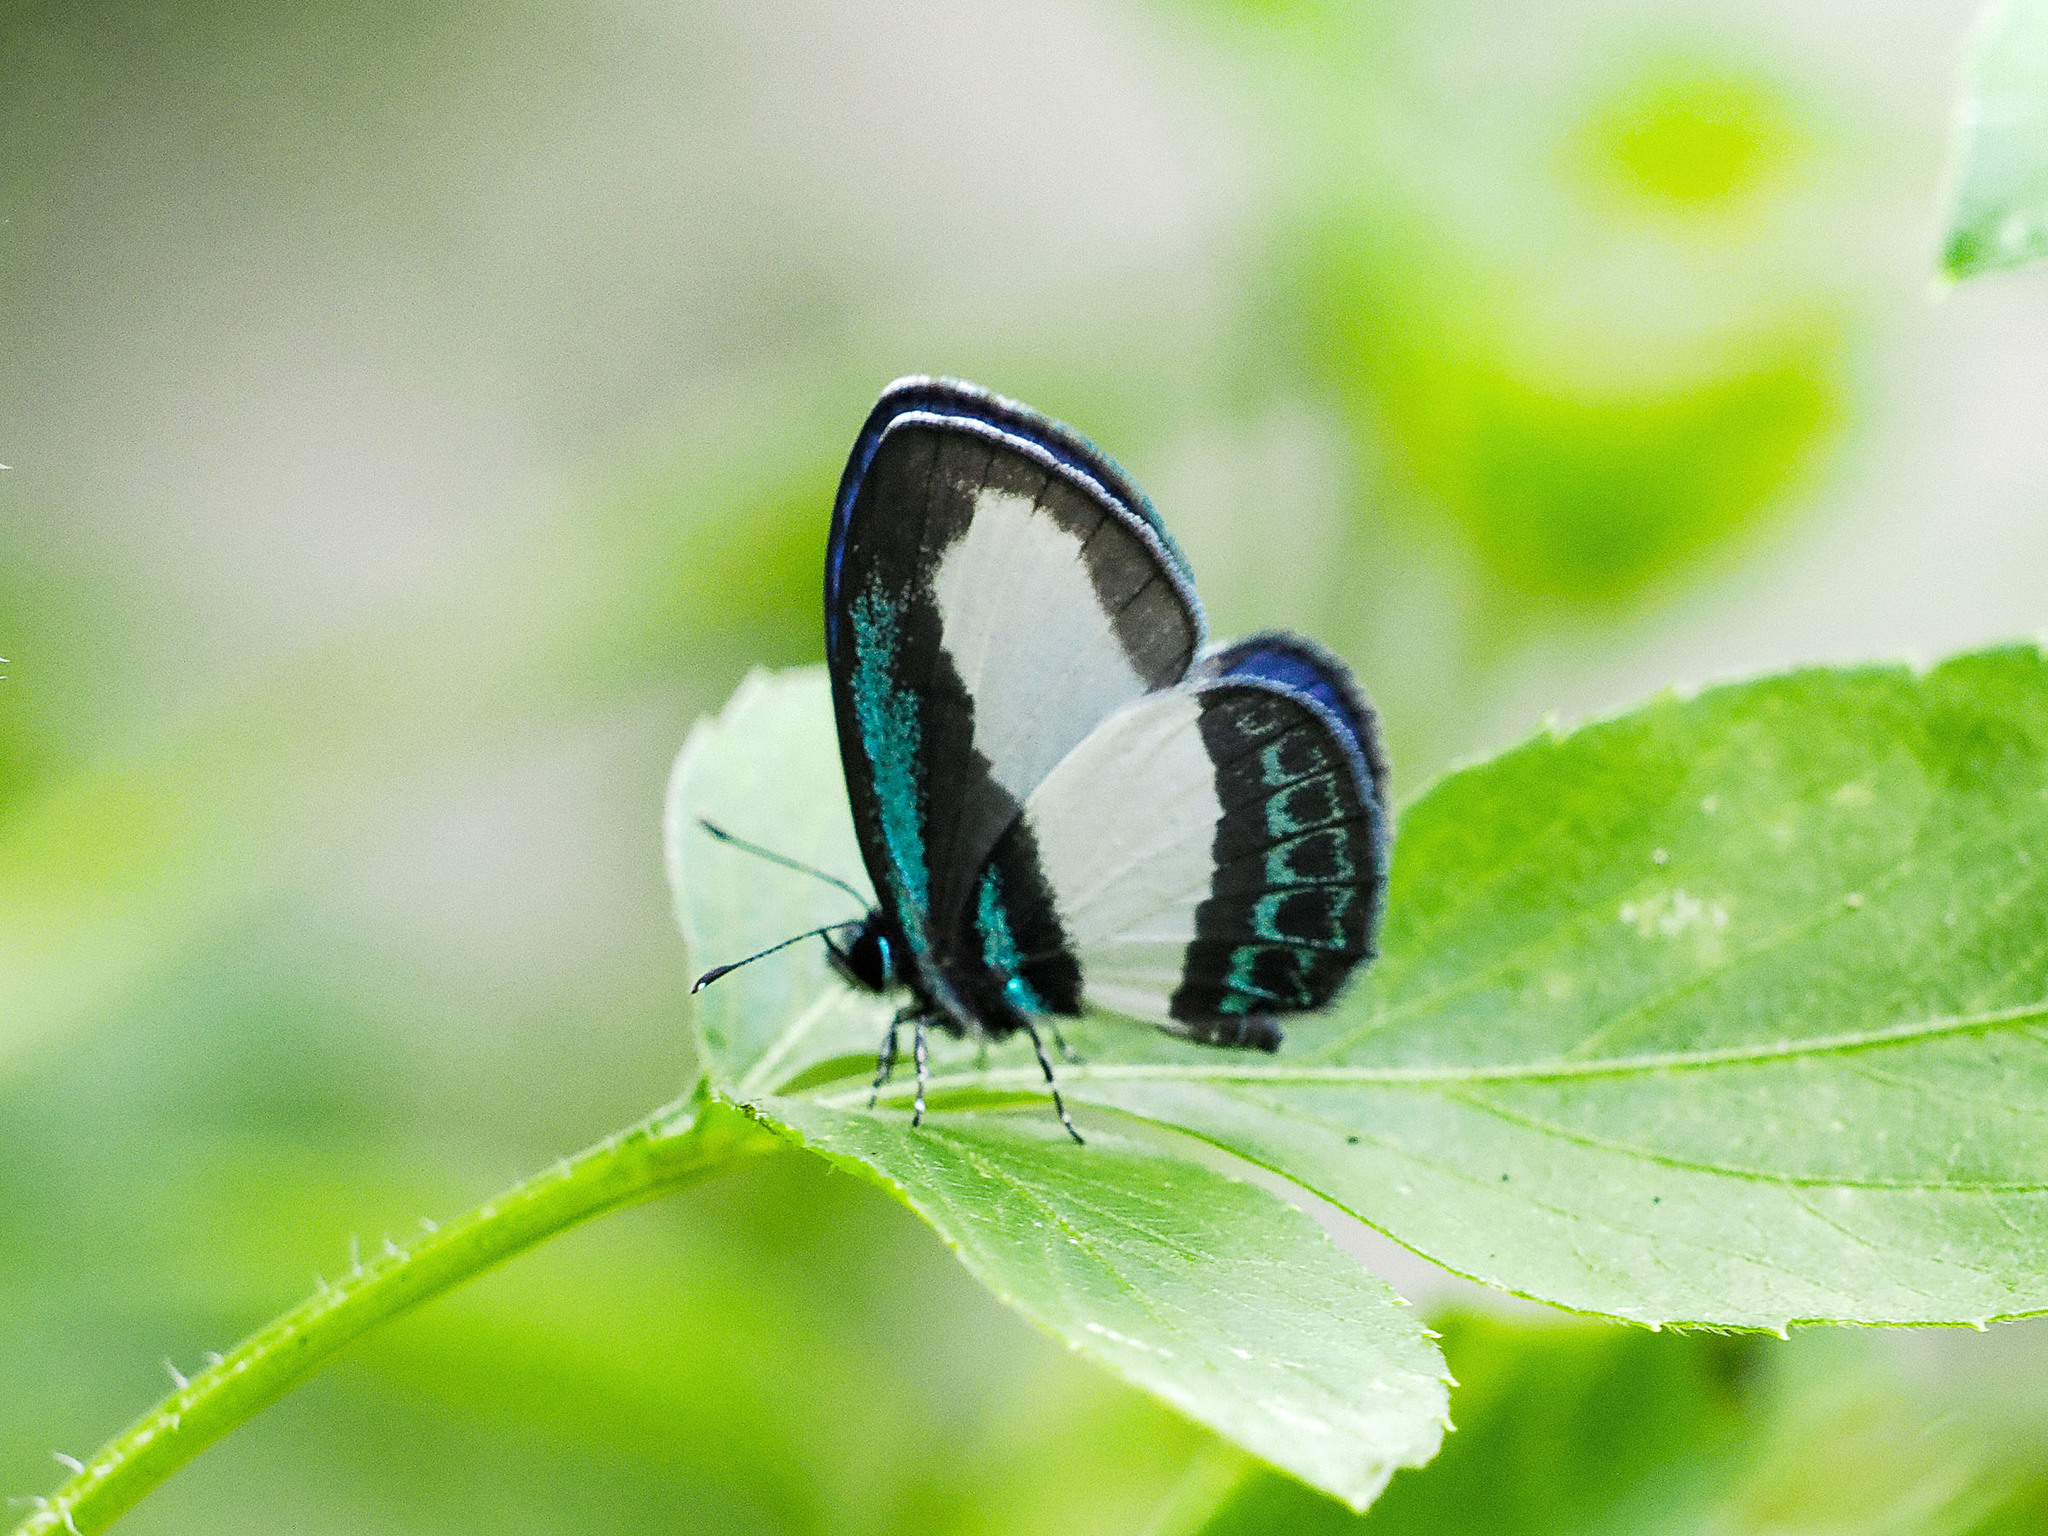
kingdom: Animalia
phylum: Arthropoda
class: Insecta
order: Lepidoptera
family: Lycaenidae
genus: Psychonotis
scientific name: Psychonotis caelius
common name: Small green banded blue
